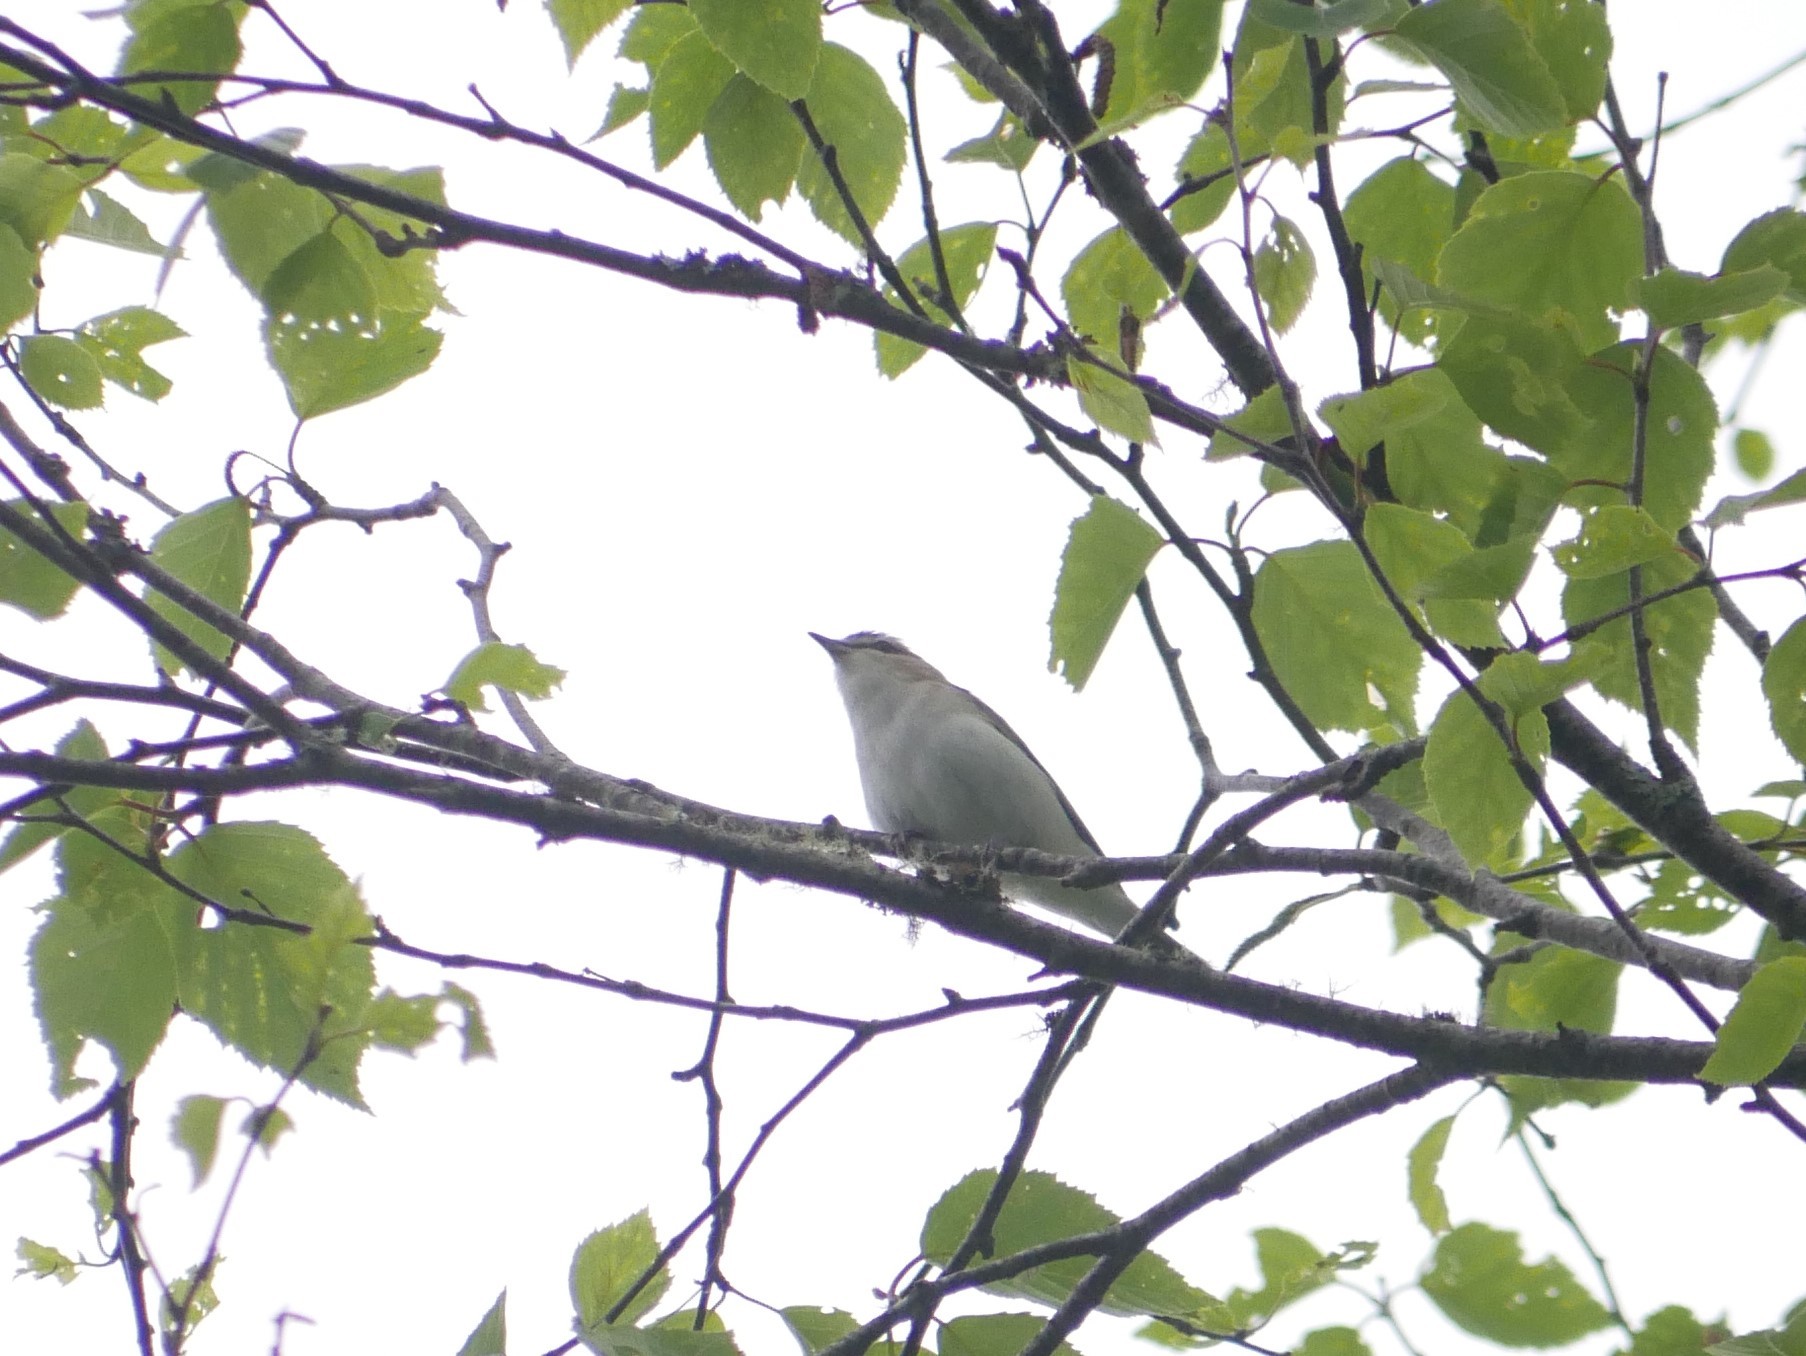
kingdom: Animalia
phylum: Chordata
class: Aves
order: Passeriformes
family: Vireonidae
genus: Vireo
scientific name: Vireo olivaceus
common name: Red-eyed vireo
